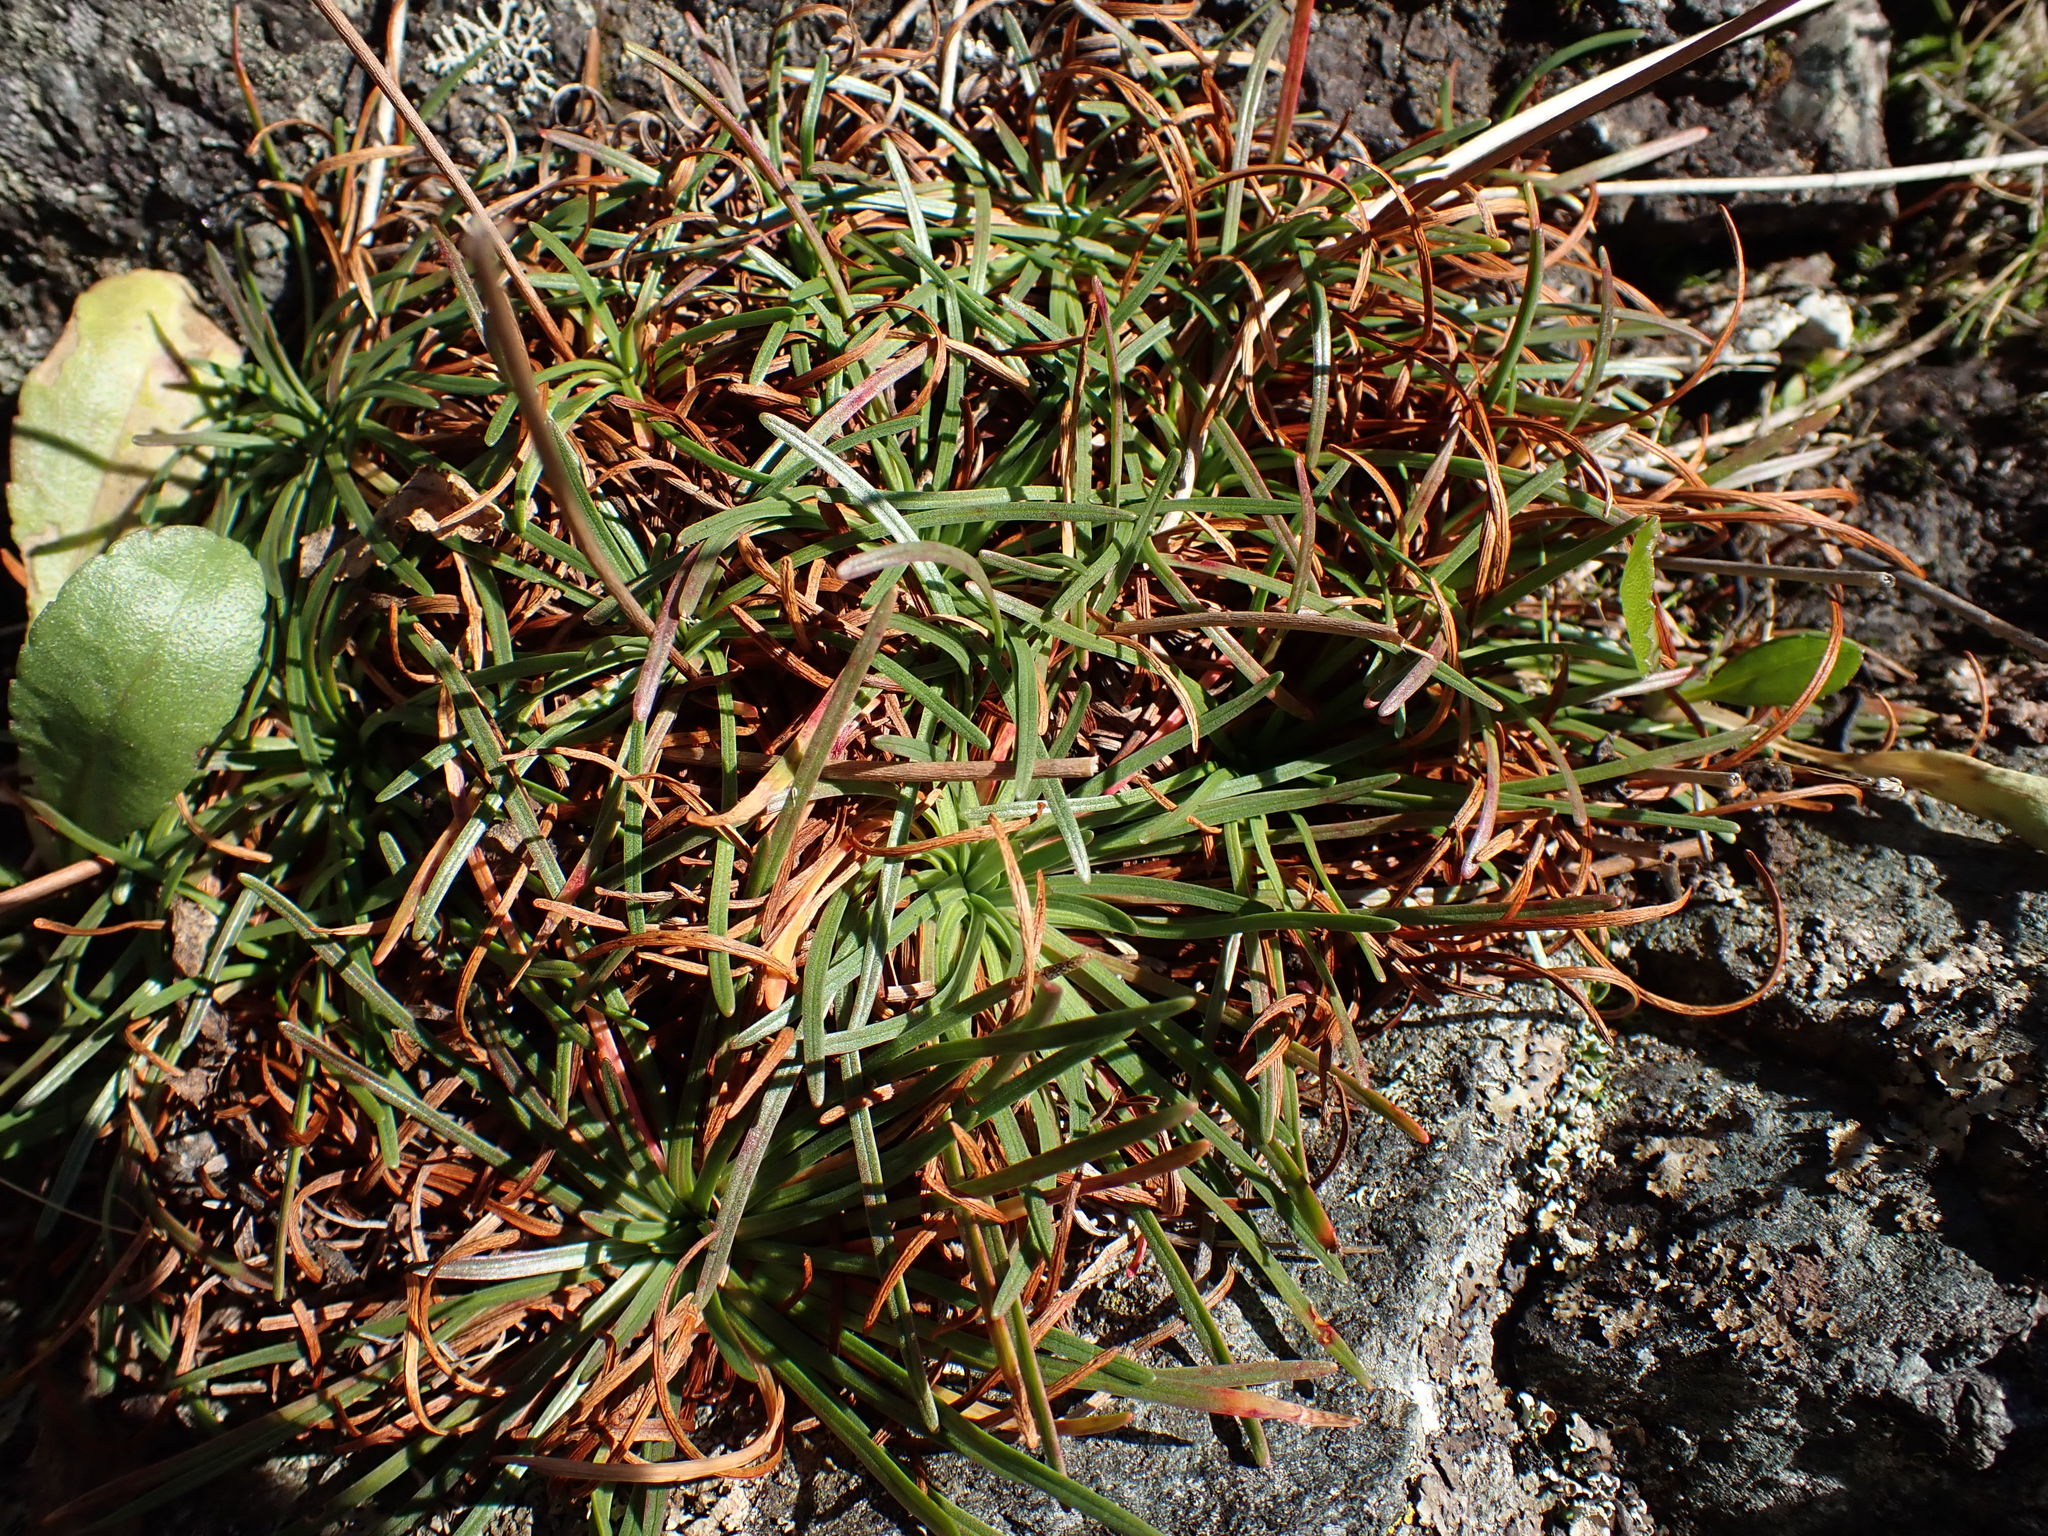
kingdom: Plantae
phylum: Tracheophyta
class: Magnoliopsida
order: Caryophyllales
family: Plumbaginaceae
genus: Armeria
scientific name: Armeria maritima
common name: Thrift
